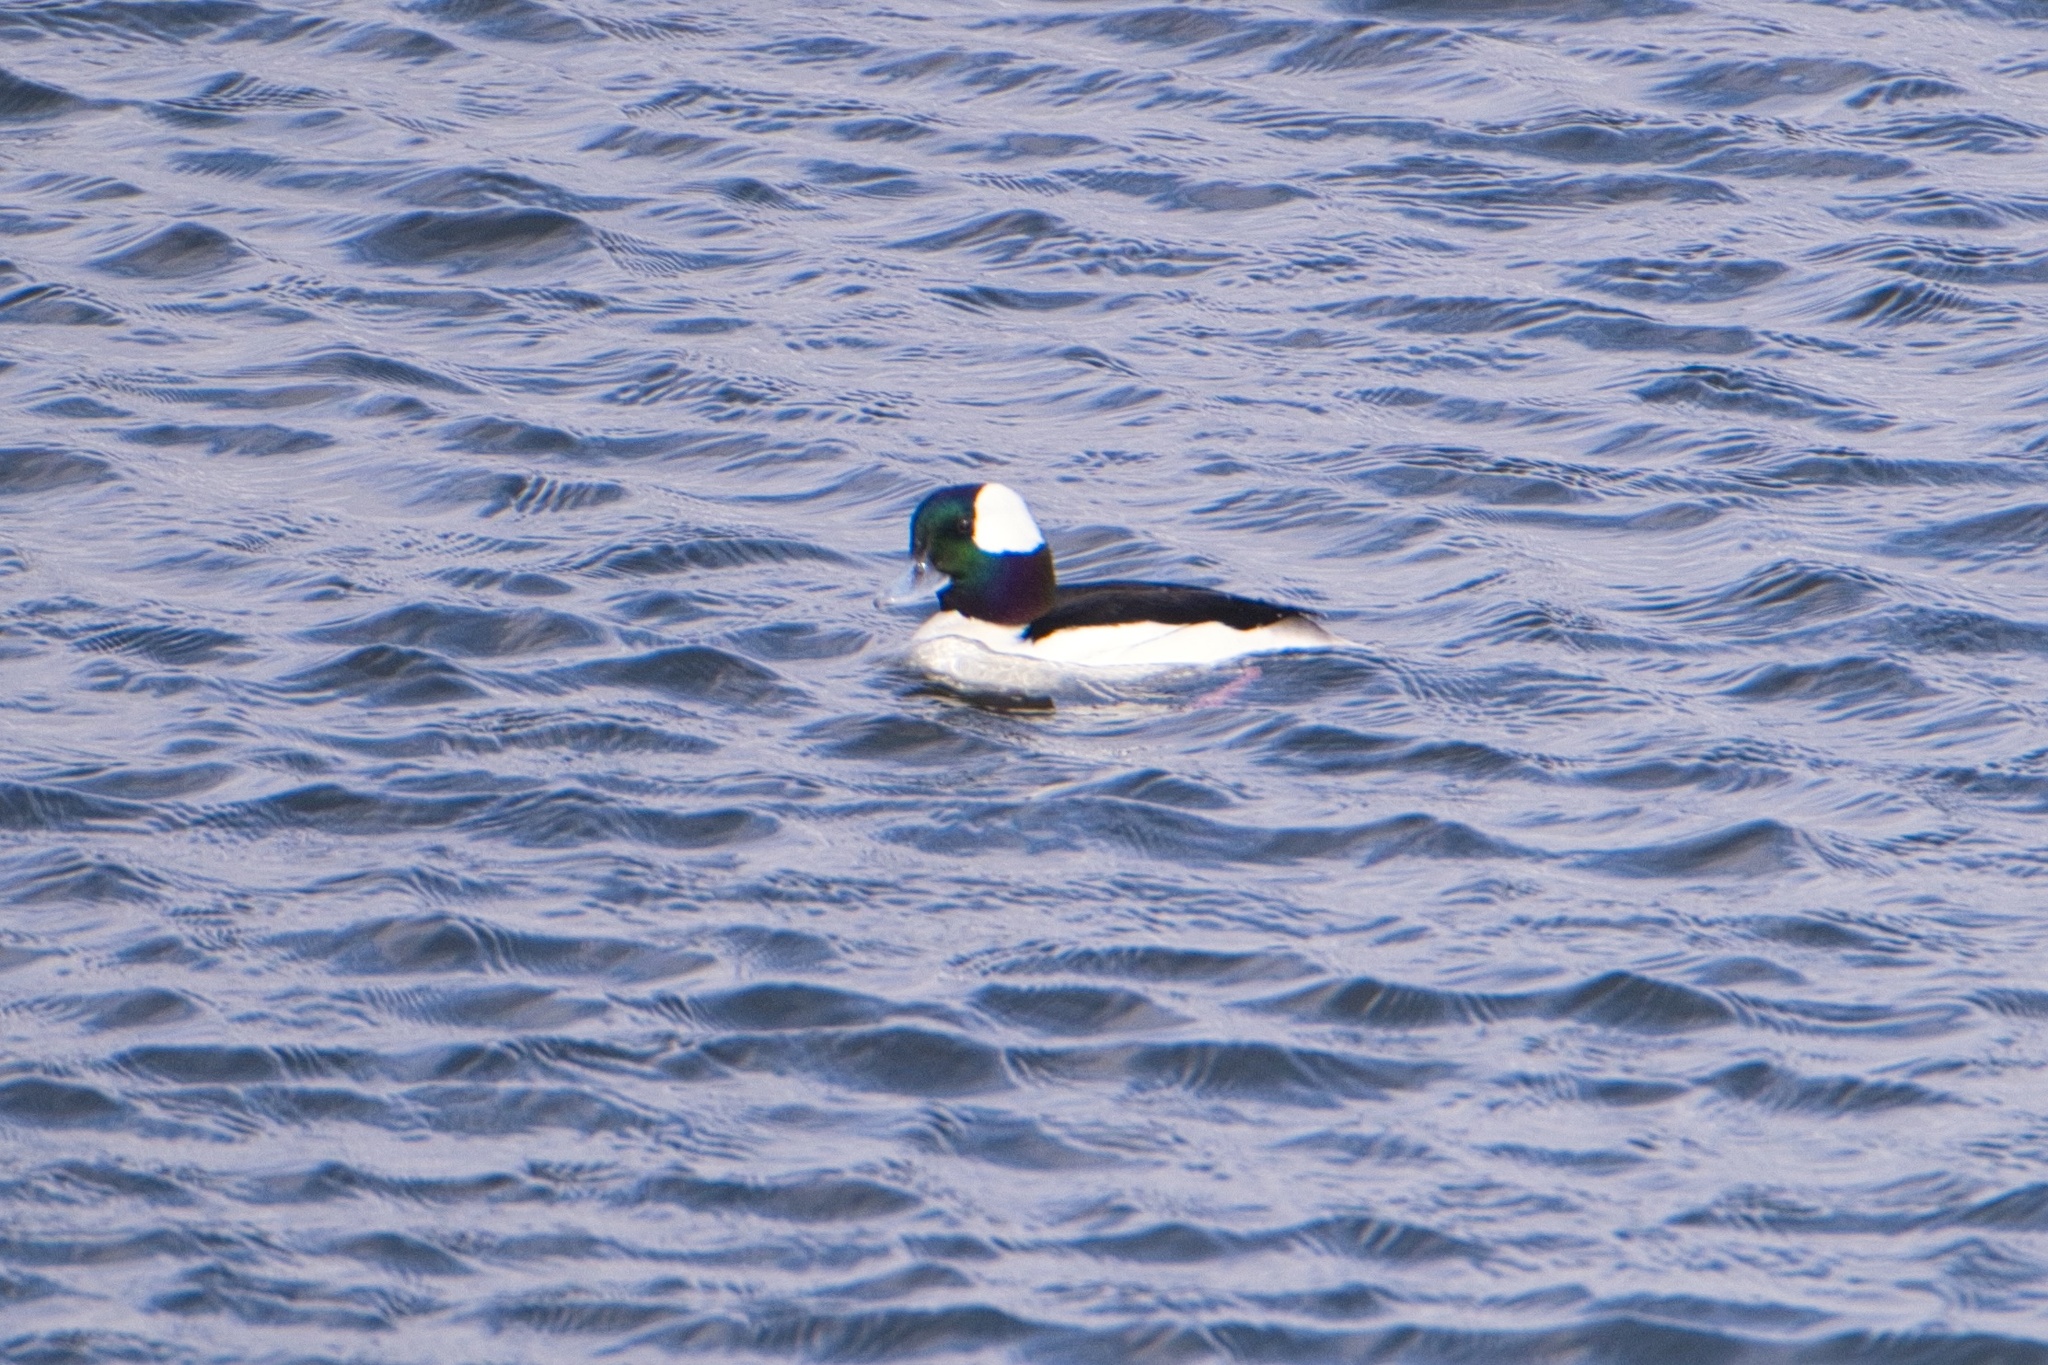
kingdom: Animalia
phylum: Chordata
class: Aves
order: Anseriformes
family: Anatidae
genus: Bucephala
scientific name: Bucephala albeola
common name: Bufflehead
